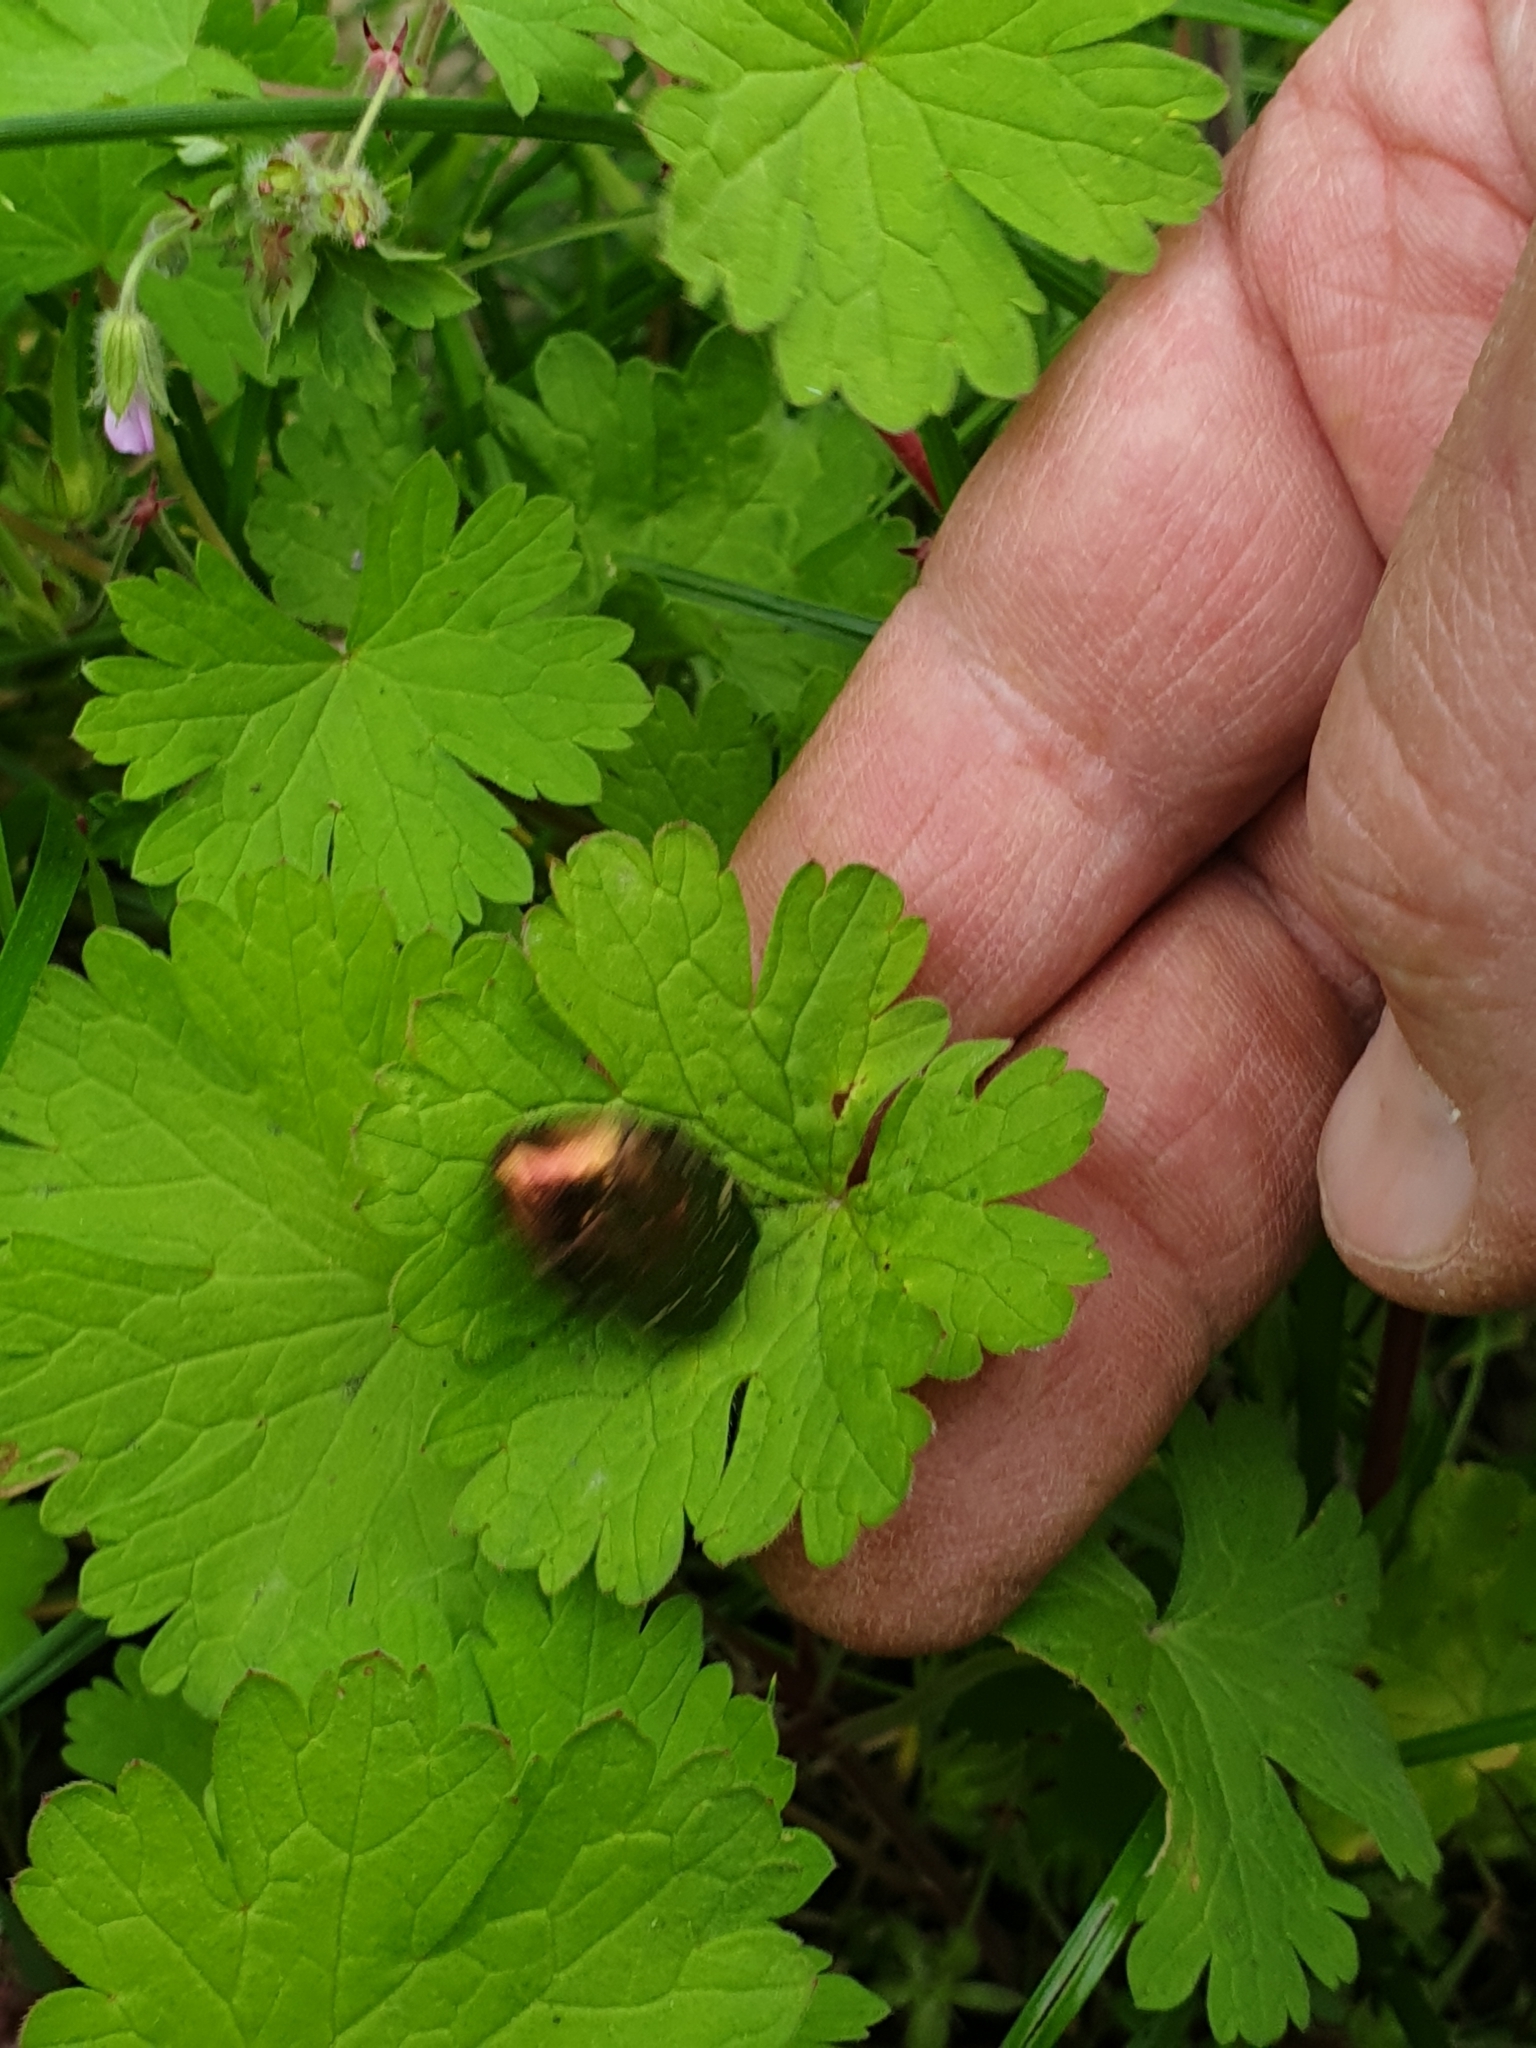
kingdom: Animalia
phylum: Arthropoda
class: Insecta
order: Coleoptera
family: Scarabaeidae
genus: Cetonia
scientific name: Cetonia aurata
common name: Rose chafer
